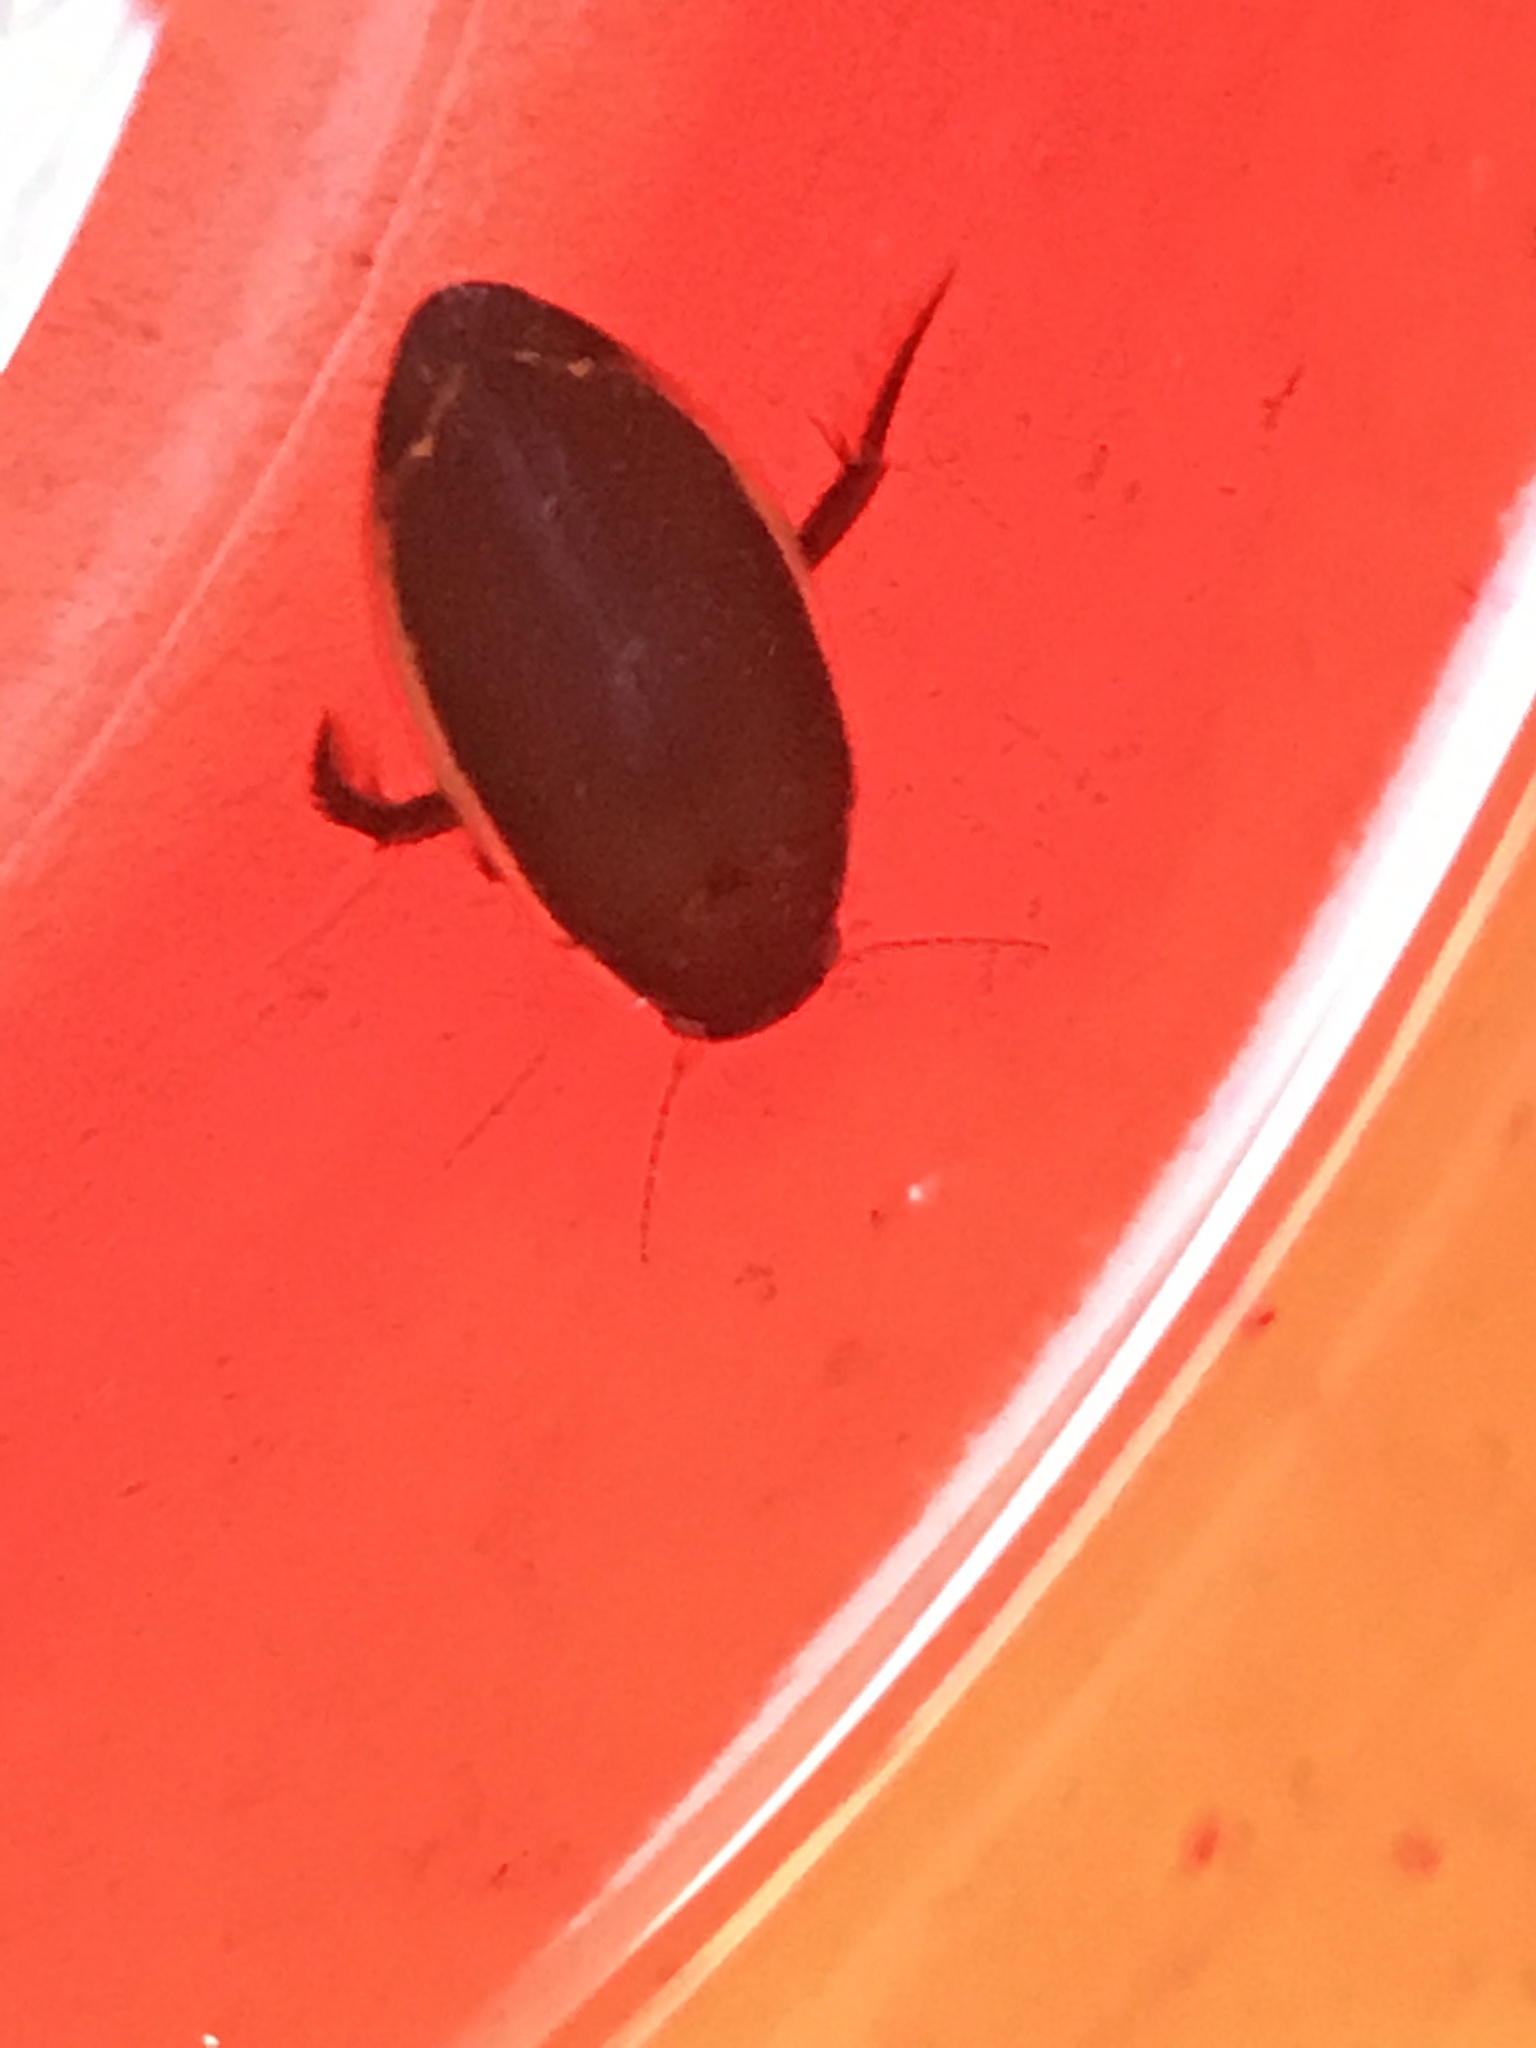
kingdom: Animalia
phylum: Arthropoda
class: Insecta
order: Coleoptera
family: Dytiscidae
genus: Dytiscus
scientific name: Dytiscus verticalis
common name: Vertical diving beetle
